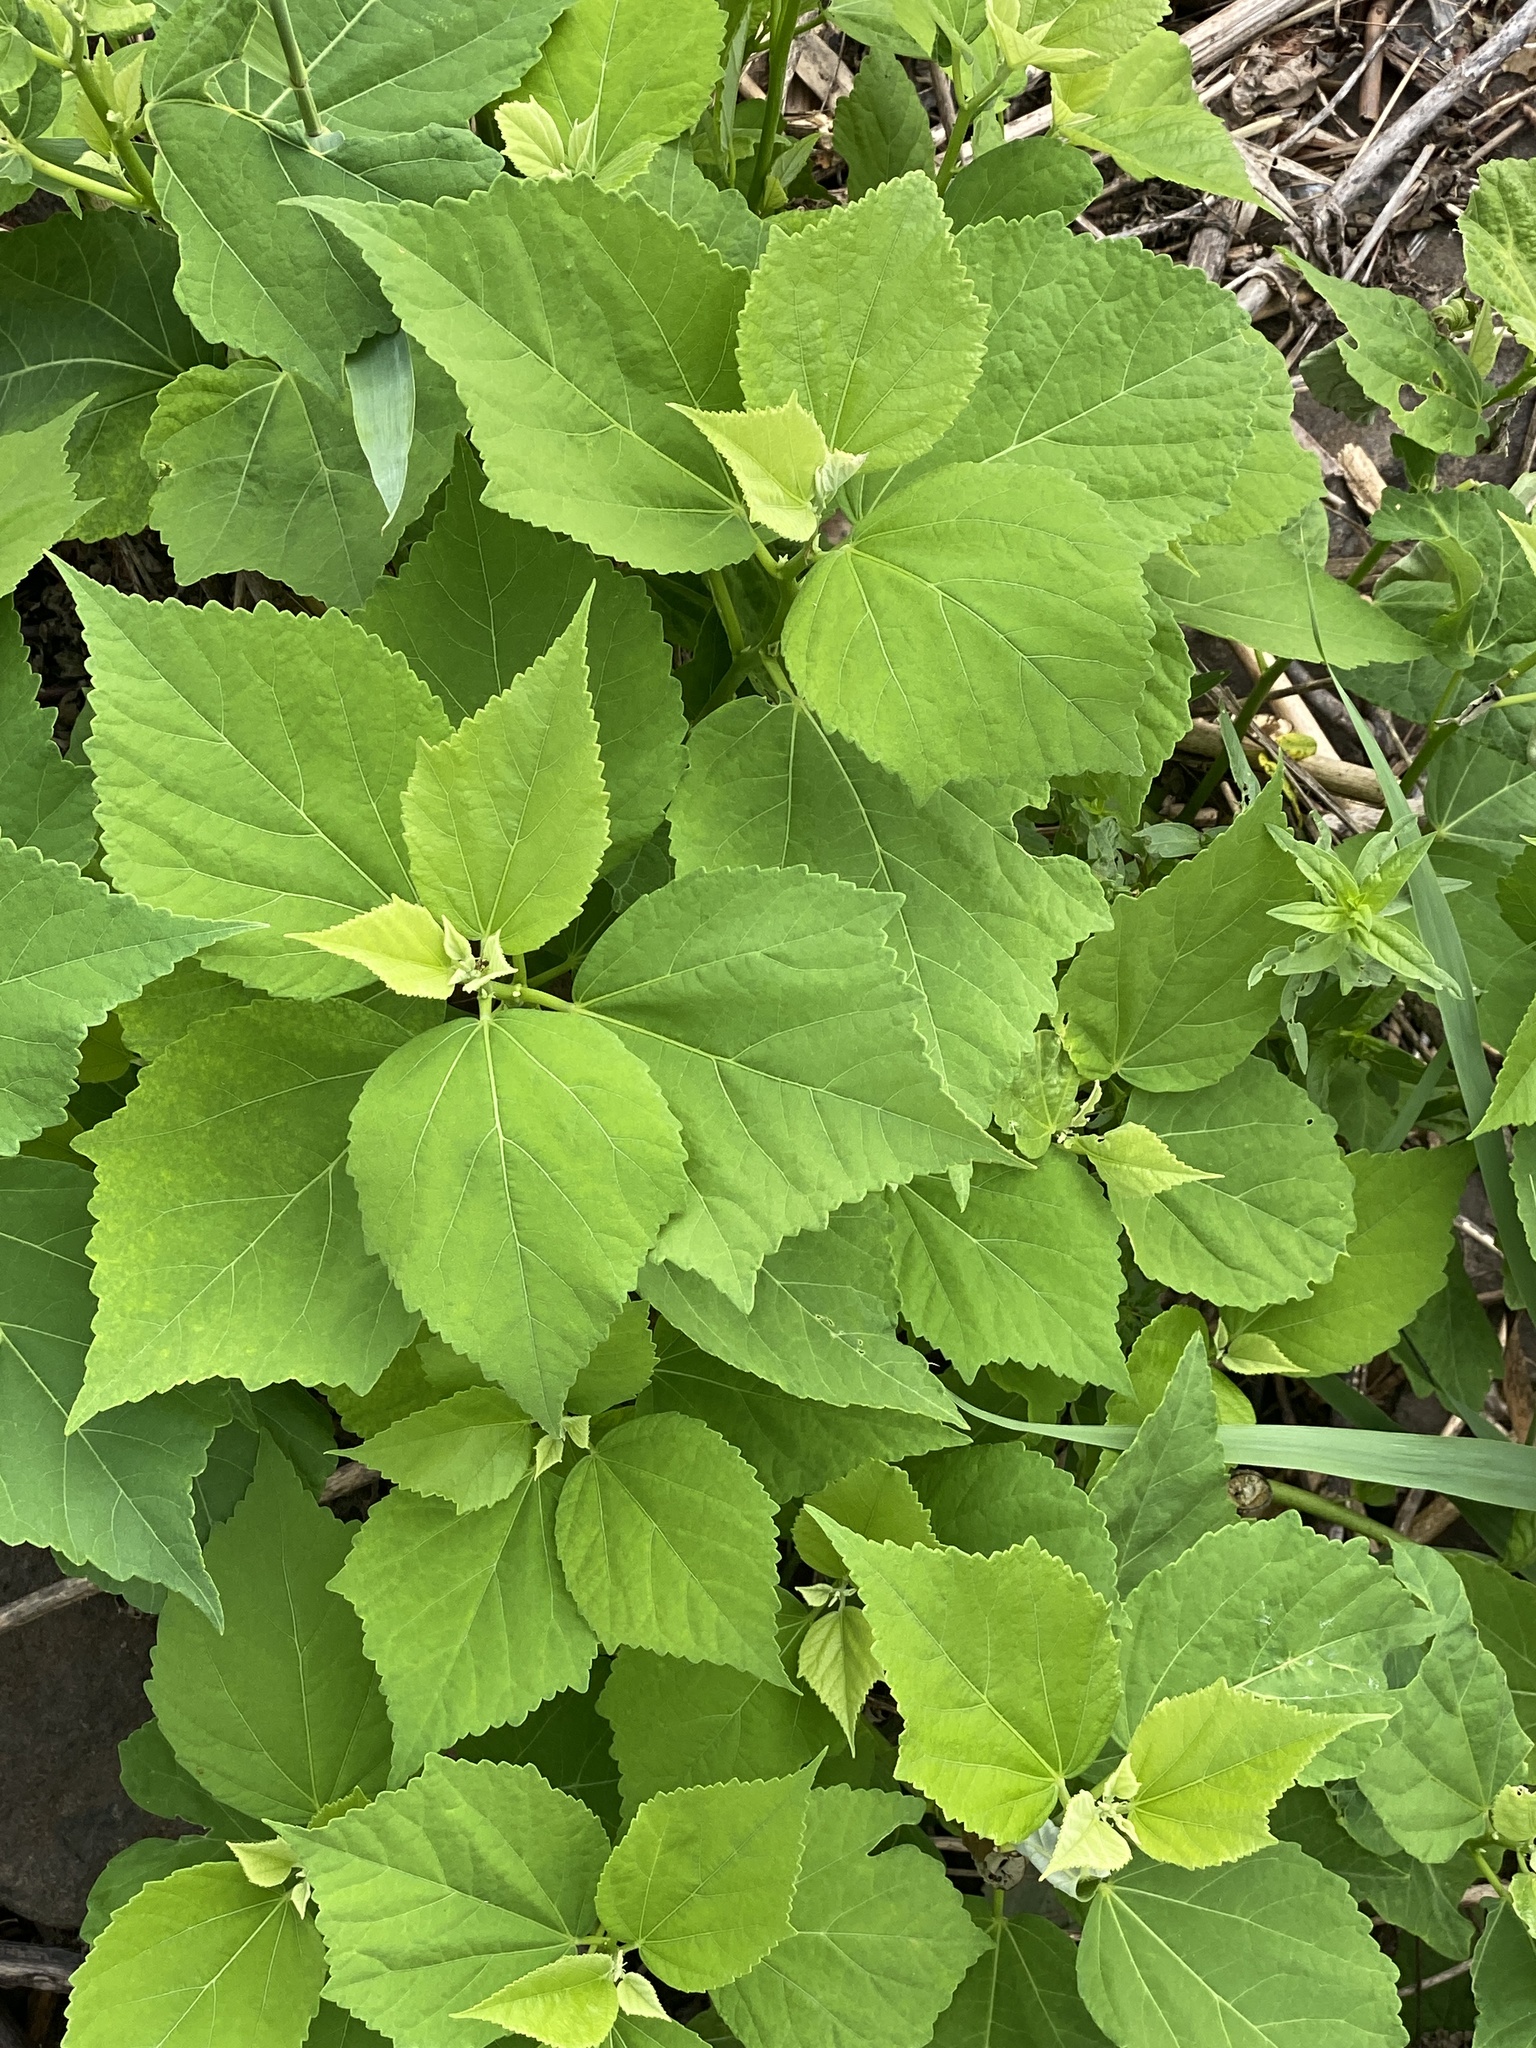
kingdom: Plantae
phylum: Tracheophyta
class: Magnoliopsida
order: Malvales
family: Malvaceae
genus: Hibiscus
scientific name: Hibiscus moscheutos
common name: Common rose-mallow
